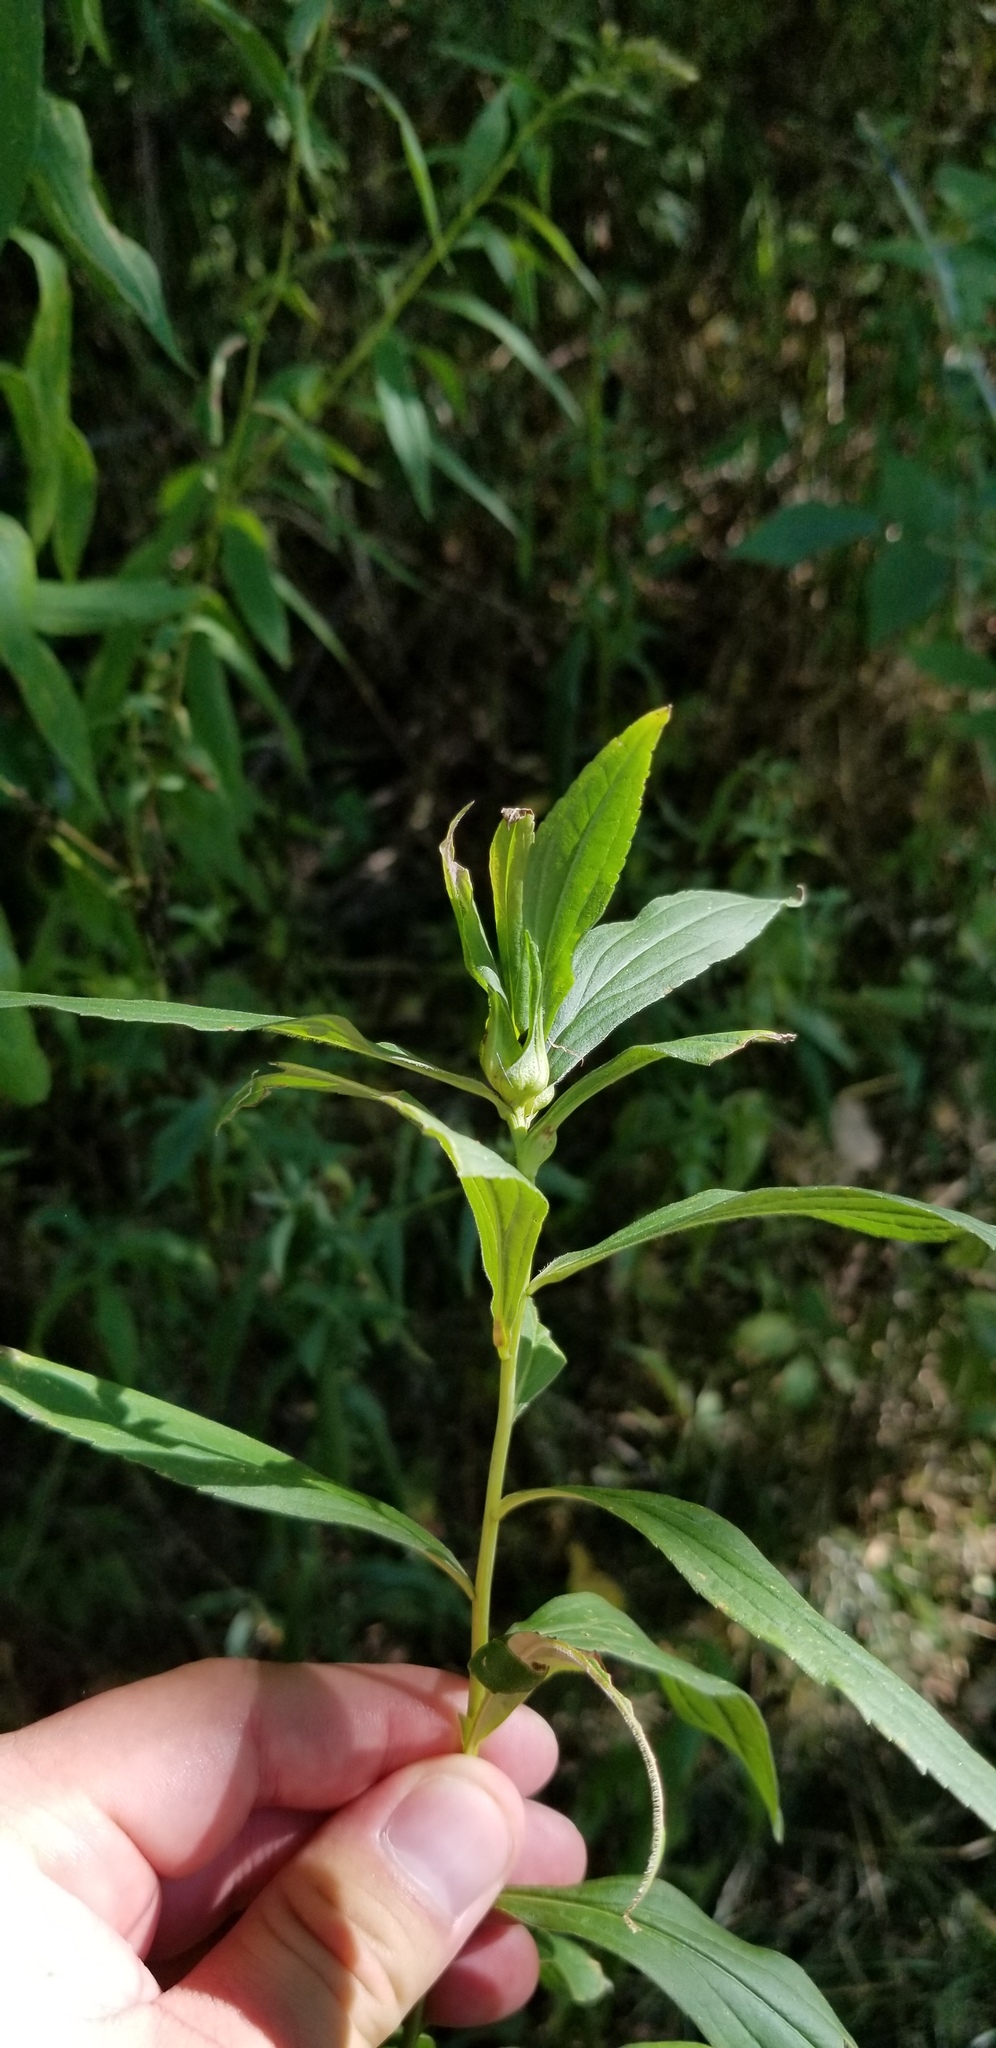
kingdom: Animalia
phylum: Arthropoda
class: Insecta
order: Diptera
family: Cecidomyiidae
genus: Dasineura
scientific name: Dasineura folliculi
